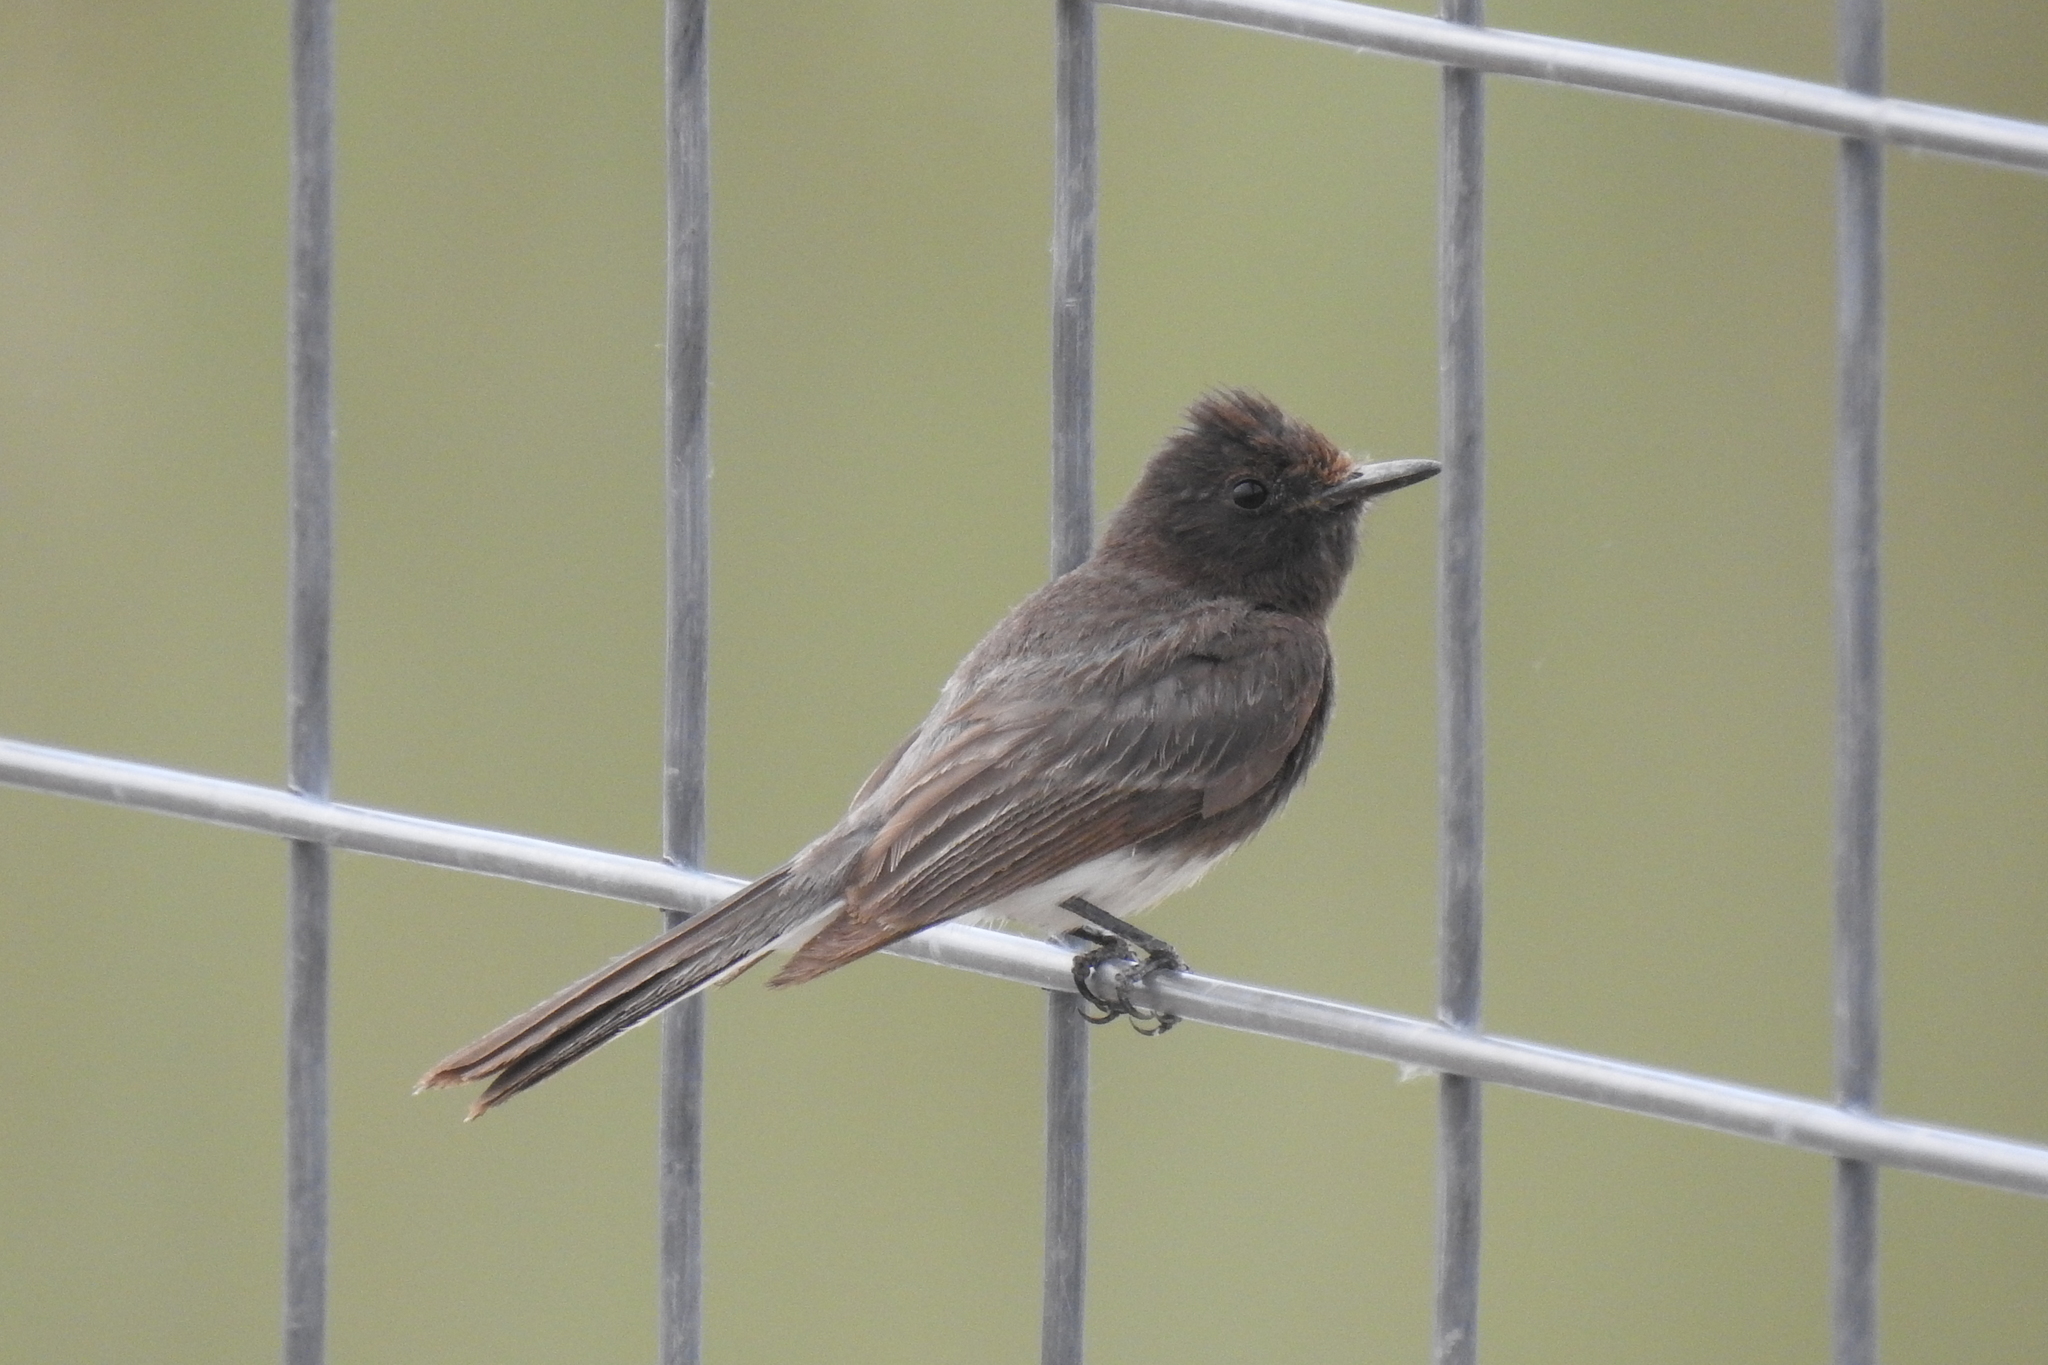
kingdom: Animalia
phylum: Chordata
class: Aves
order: Passeriformes
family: Tyrannidae
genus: Sayornis
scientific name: Sayornis nigricans
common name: Black phoebe
